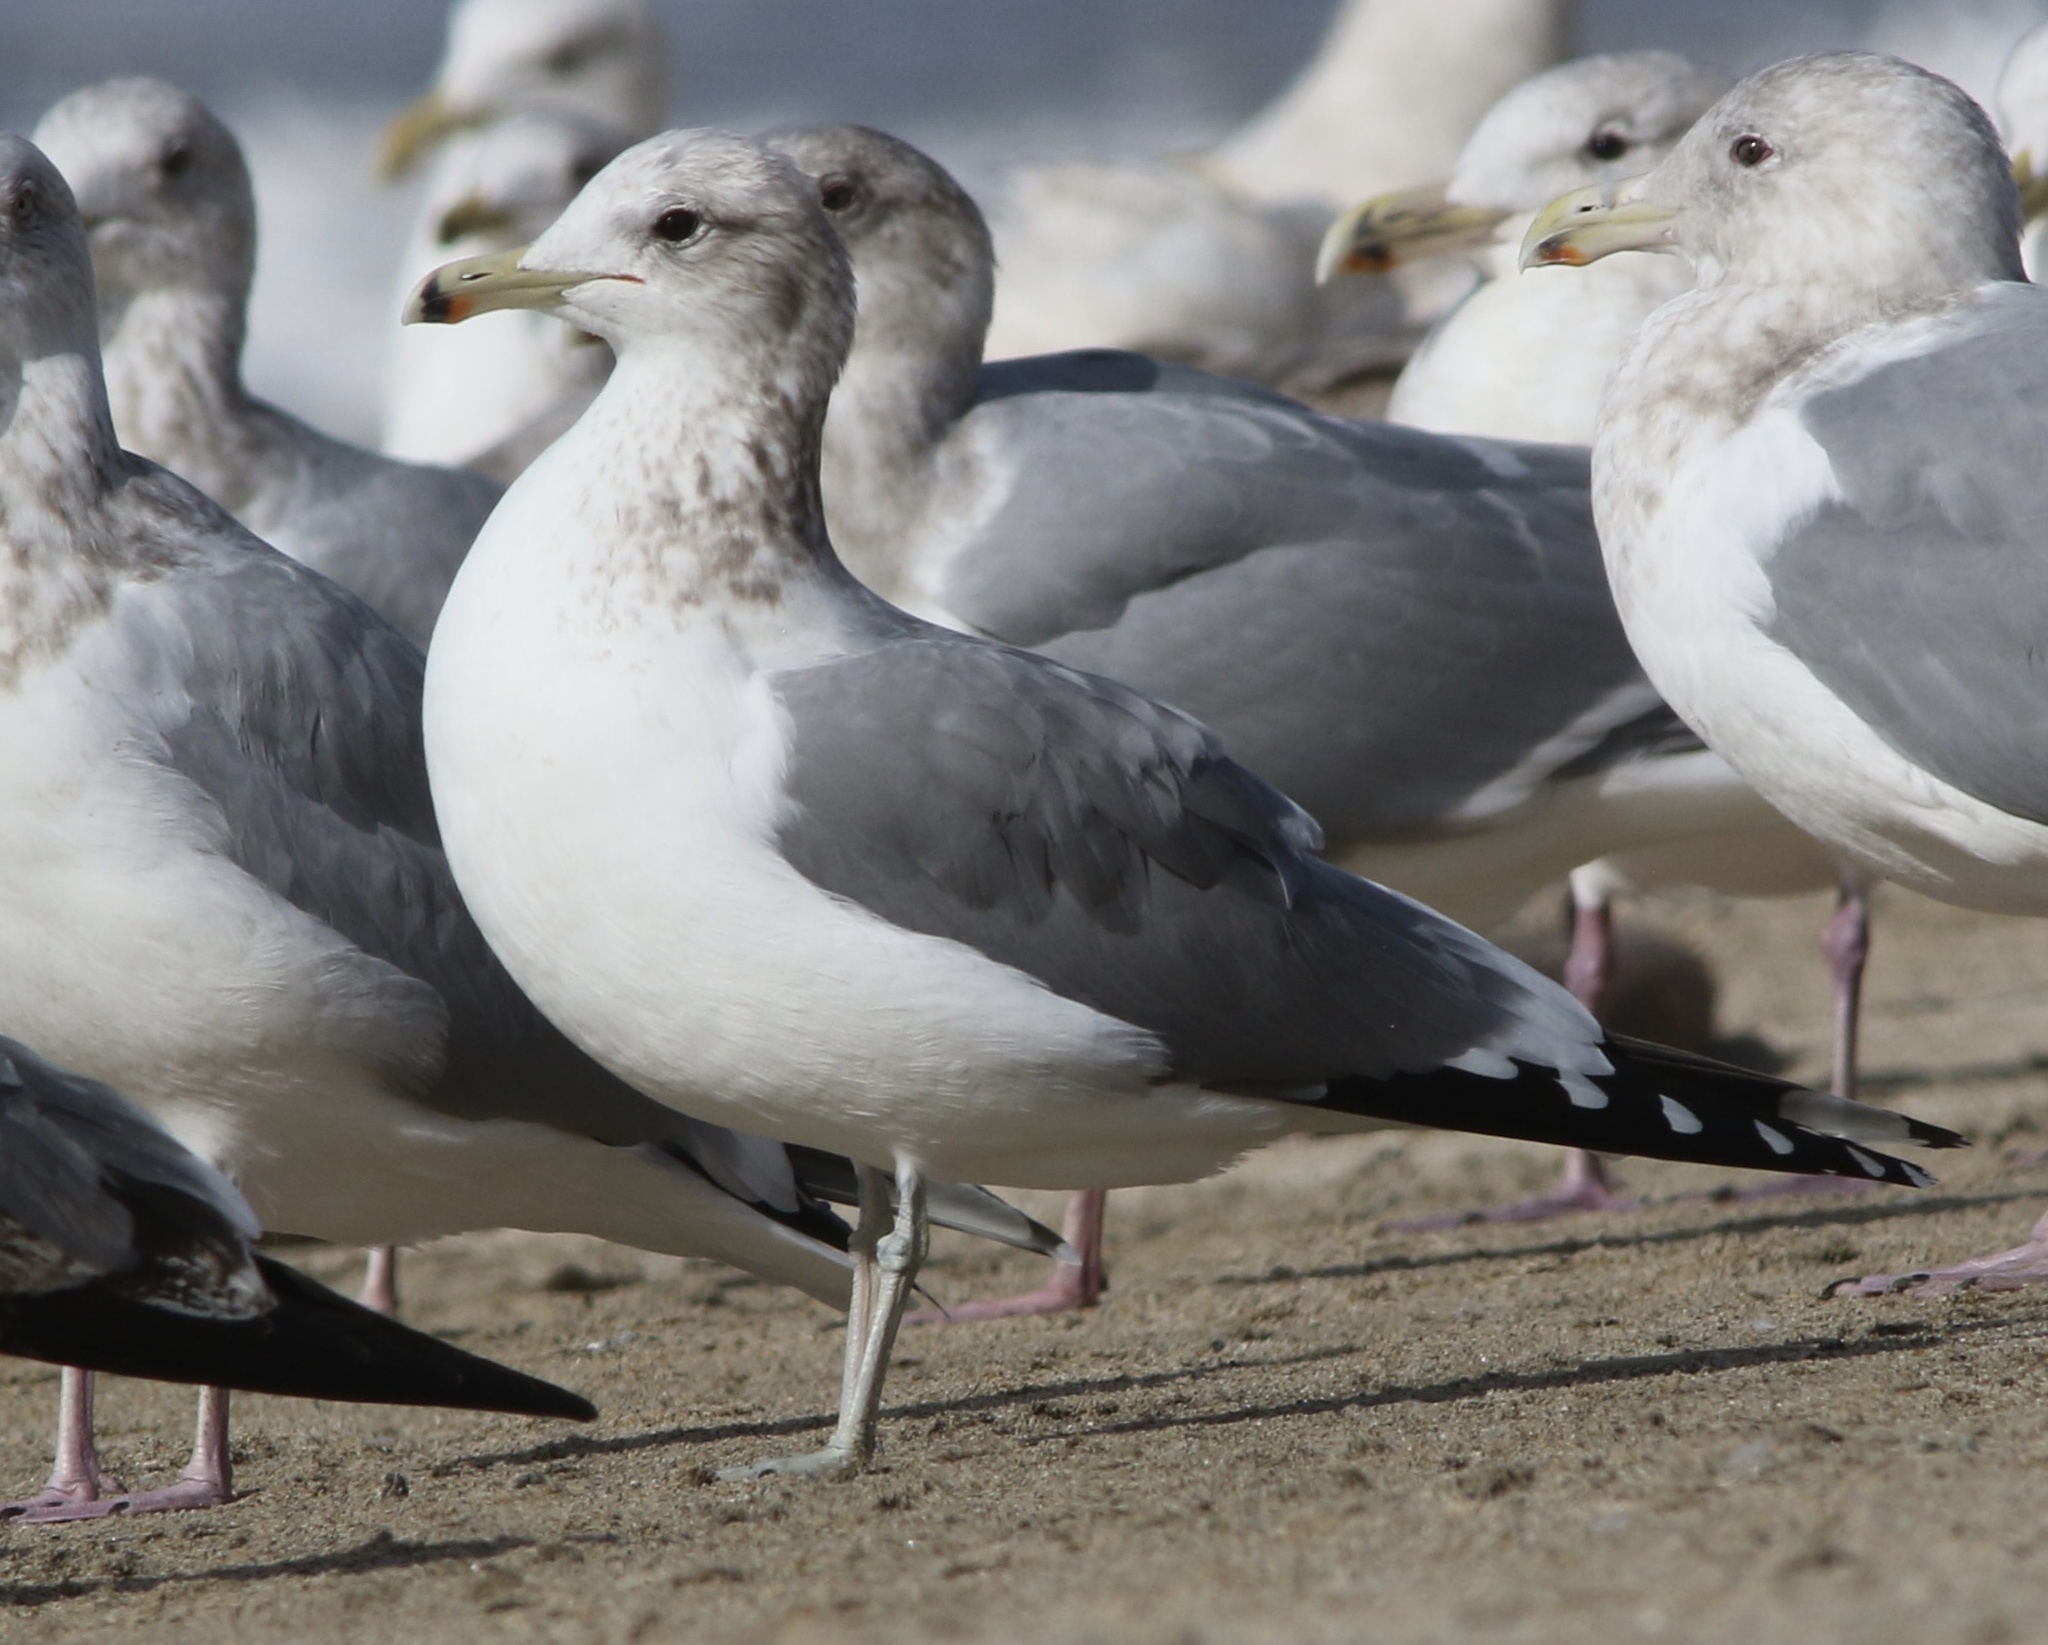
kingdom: Animalia
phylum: Chordata
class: Aves
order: Charadriiformes
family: Laridae
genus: Larus
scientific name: Larus californicus
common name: California gull
